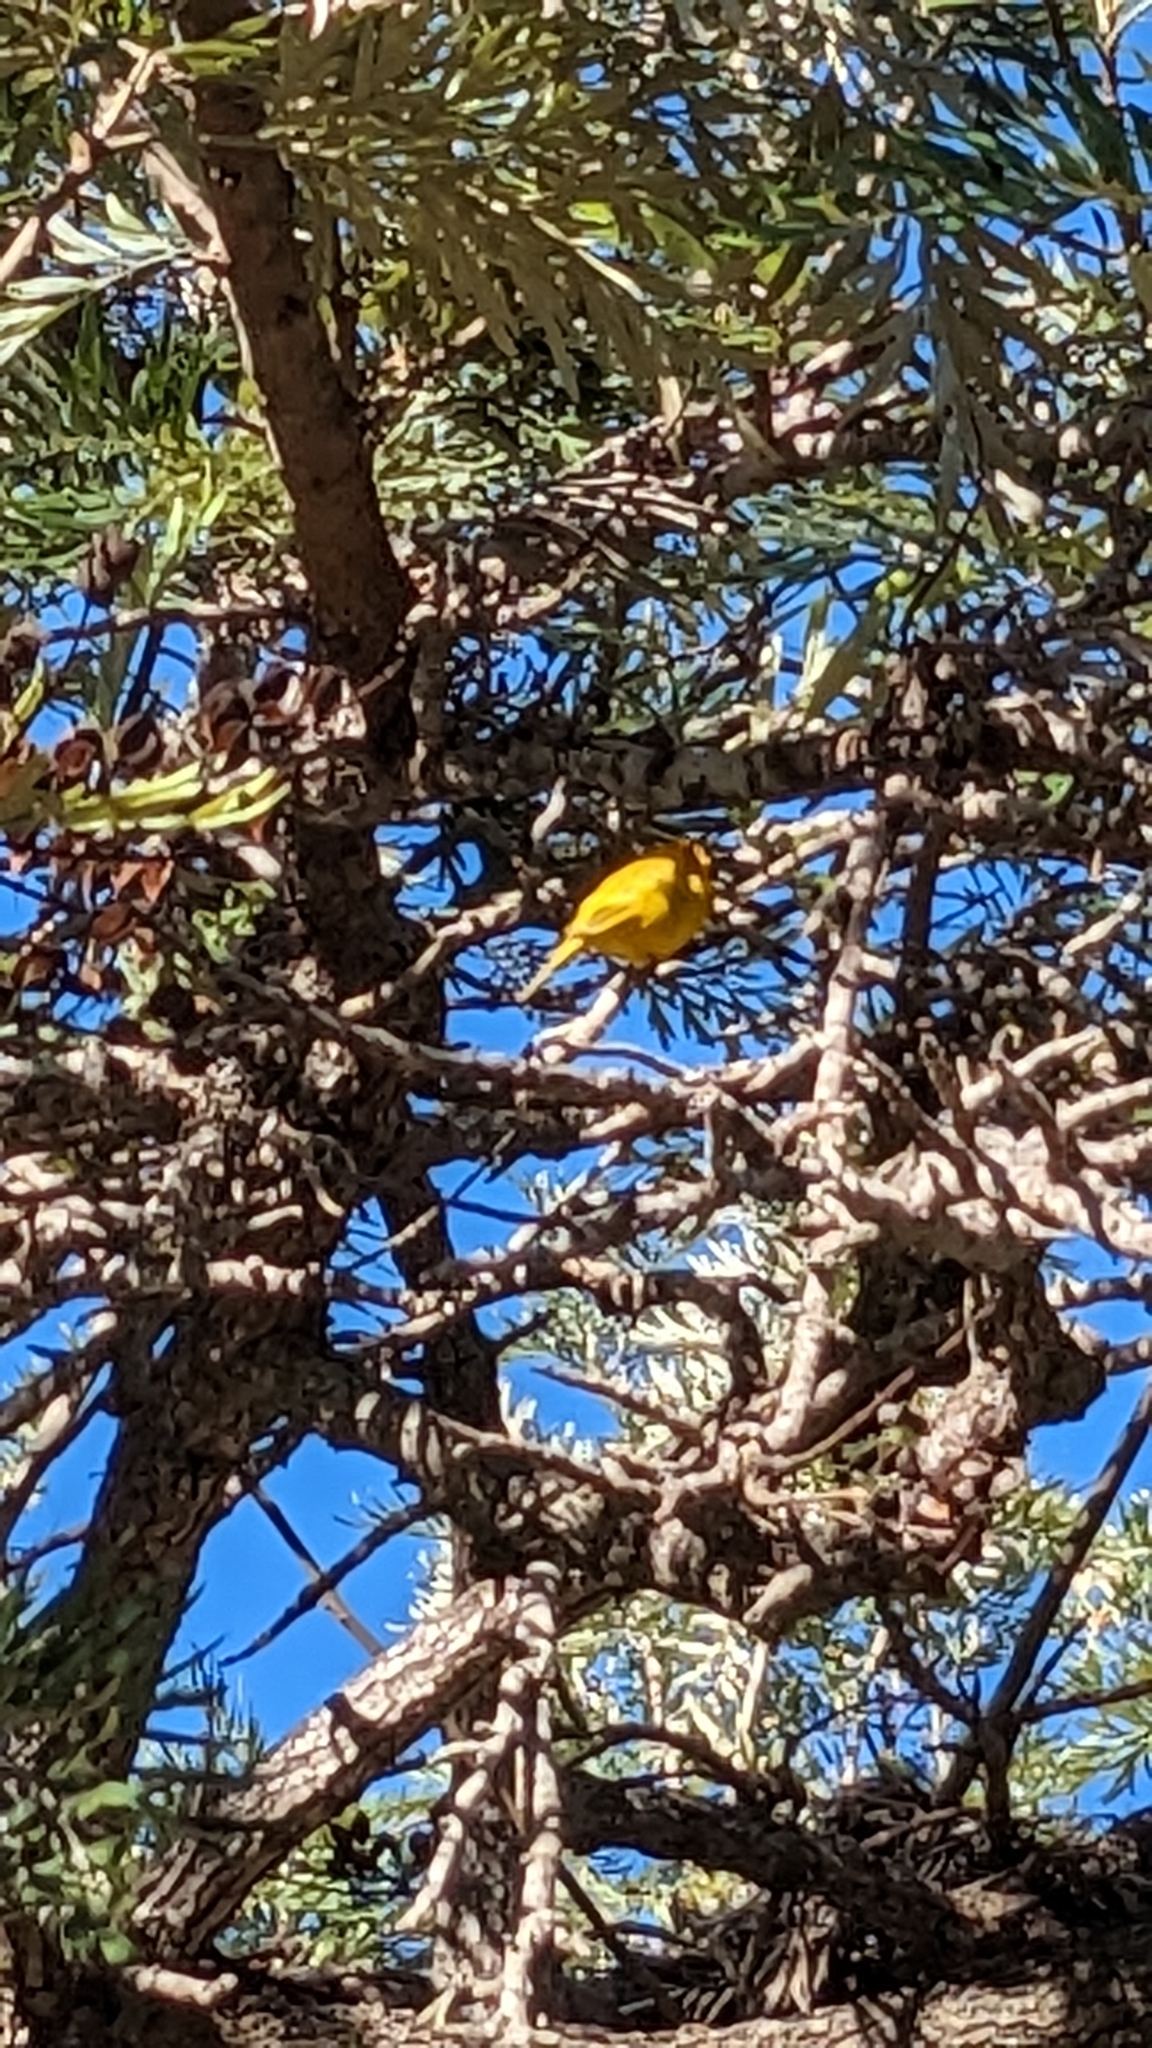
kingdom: Animalia
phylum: Chordata
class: Aves
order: Passeriformes
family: Thraupidae
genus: Sicalis
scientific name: Sicalis flaveola
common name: Saffron finch
